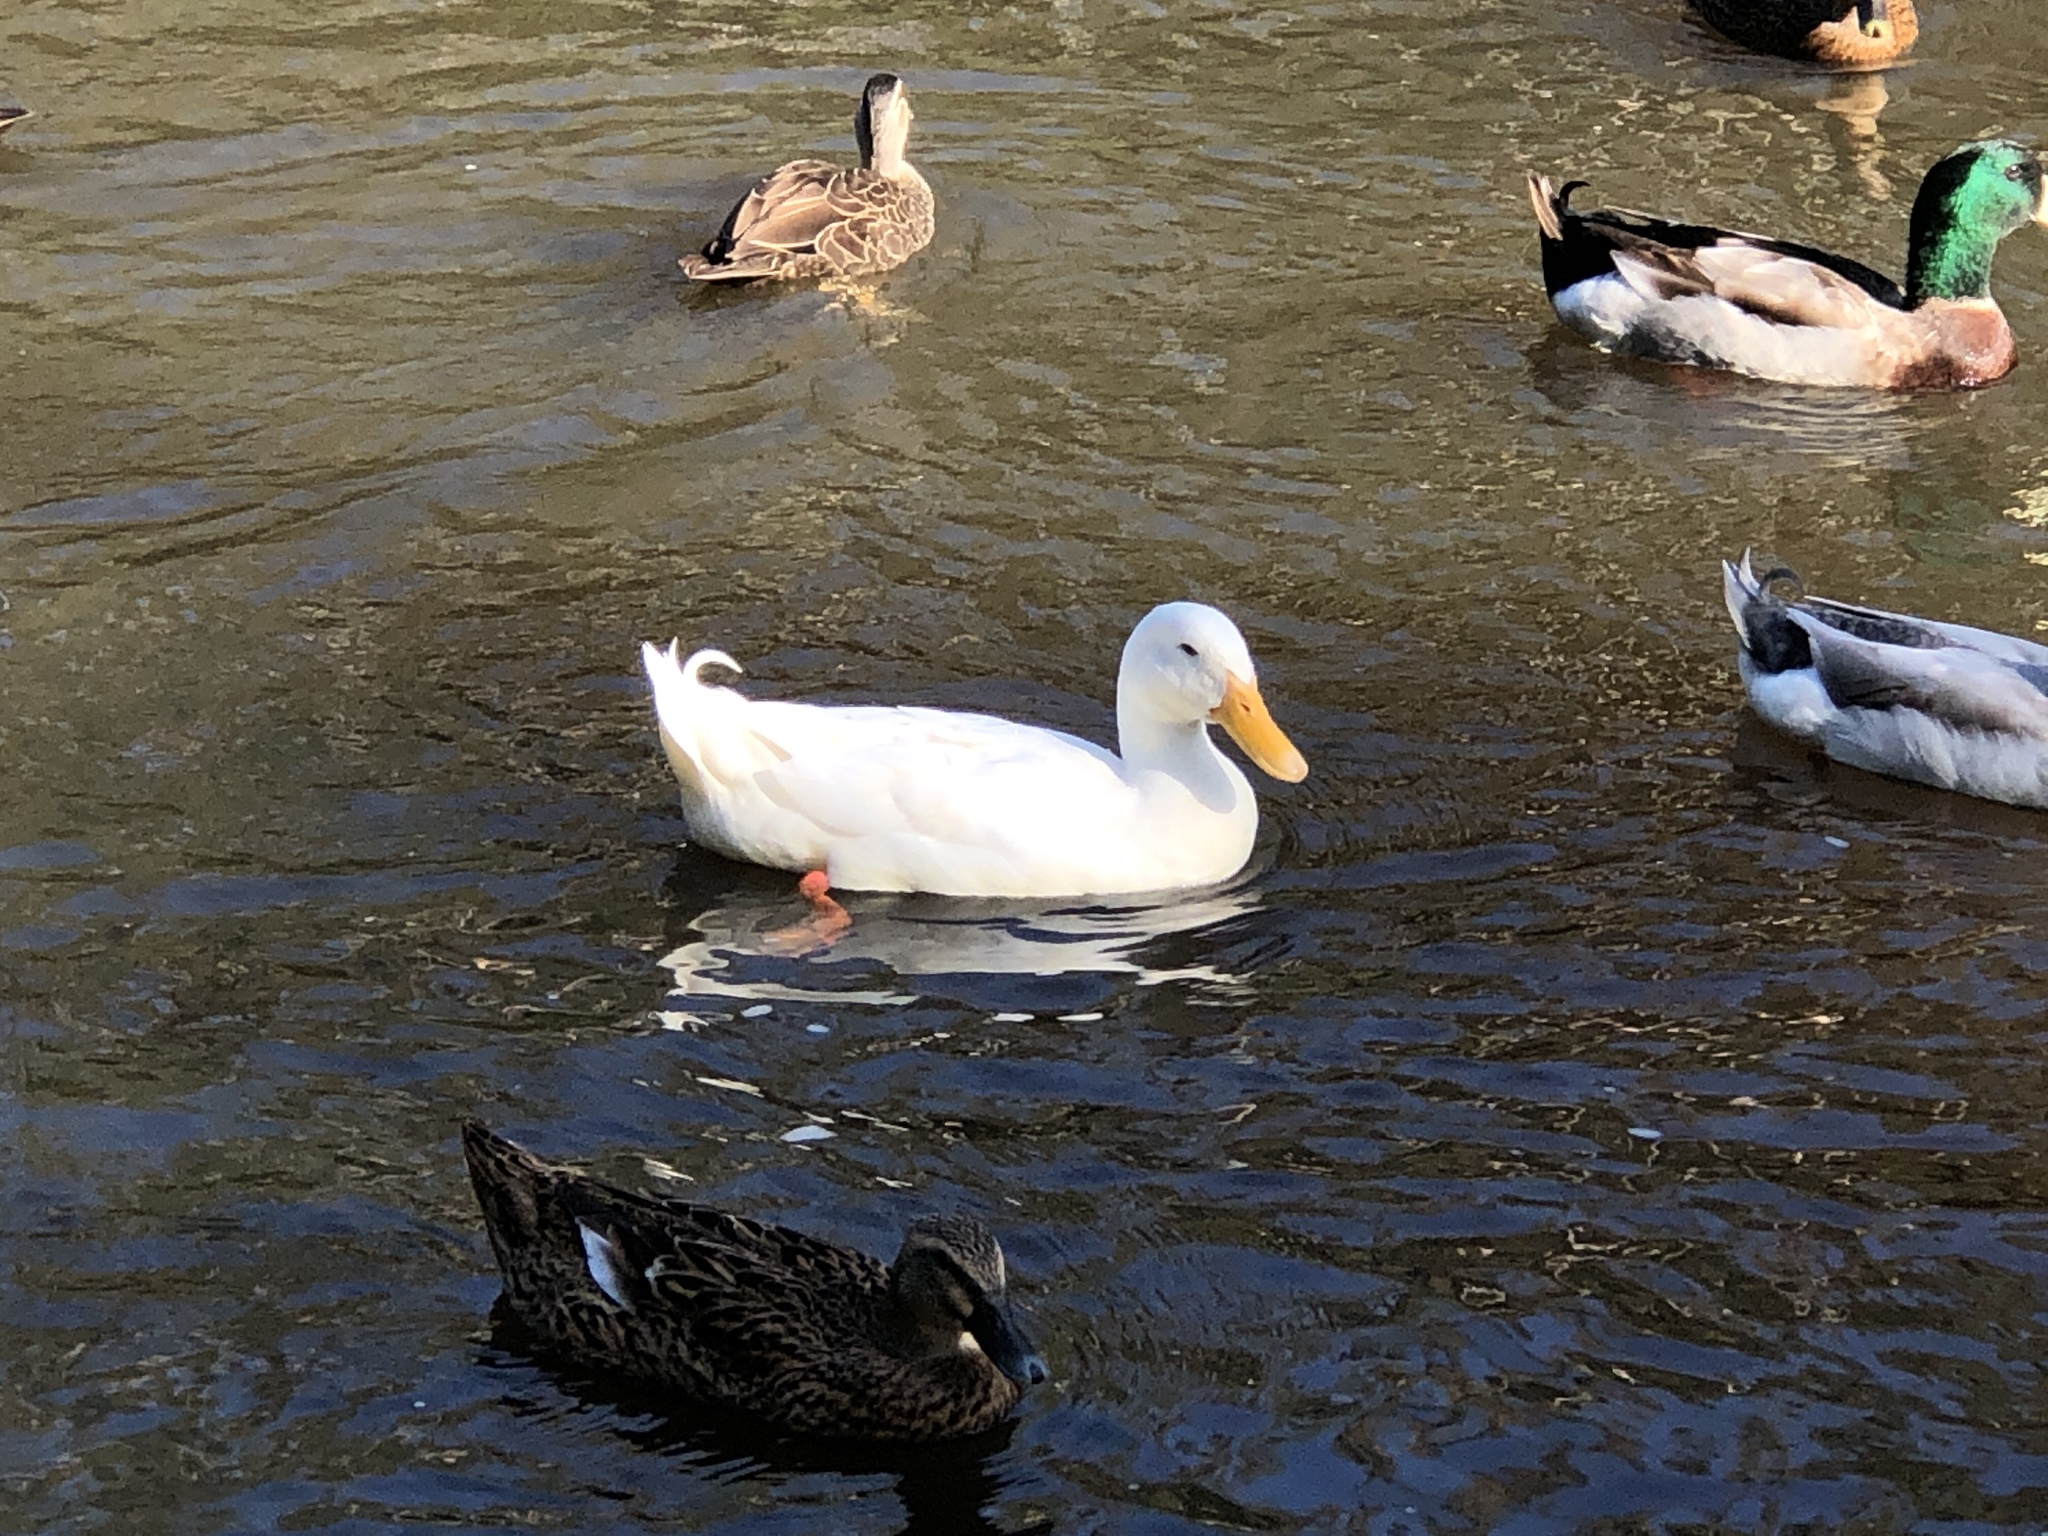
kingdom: Animalia
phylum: Chordata
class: Aves
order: Anseriformes
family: Anatidae
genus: Anas
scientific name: Anas platyrhynchos
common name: Mallard
